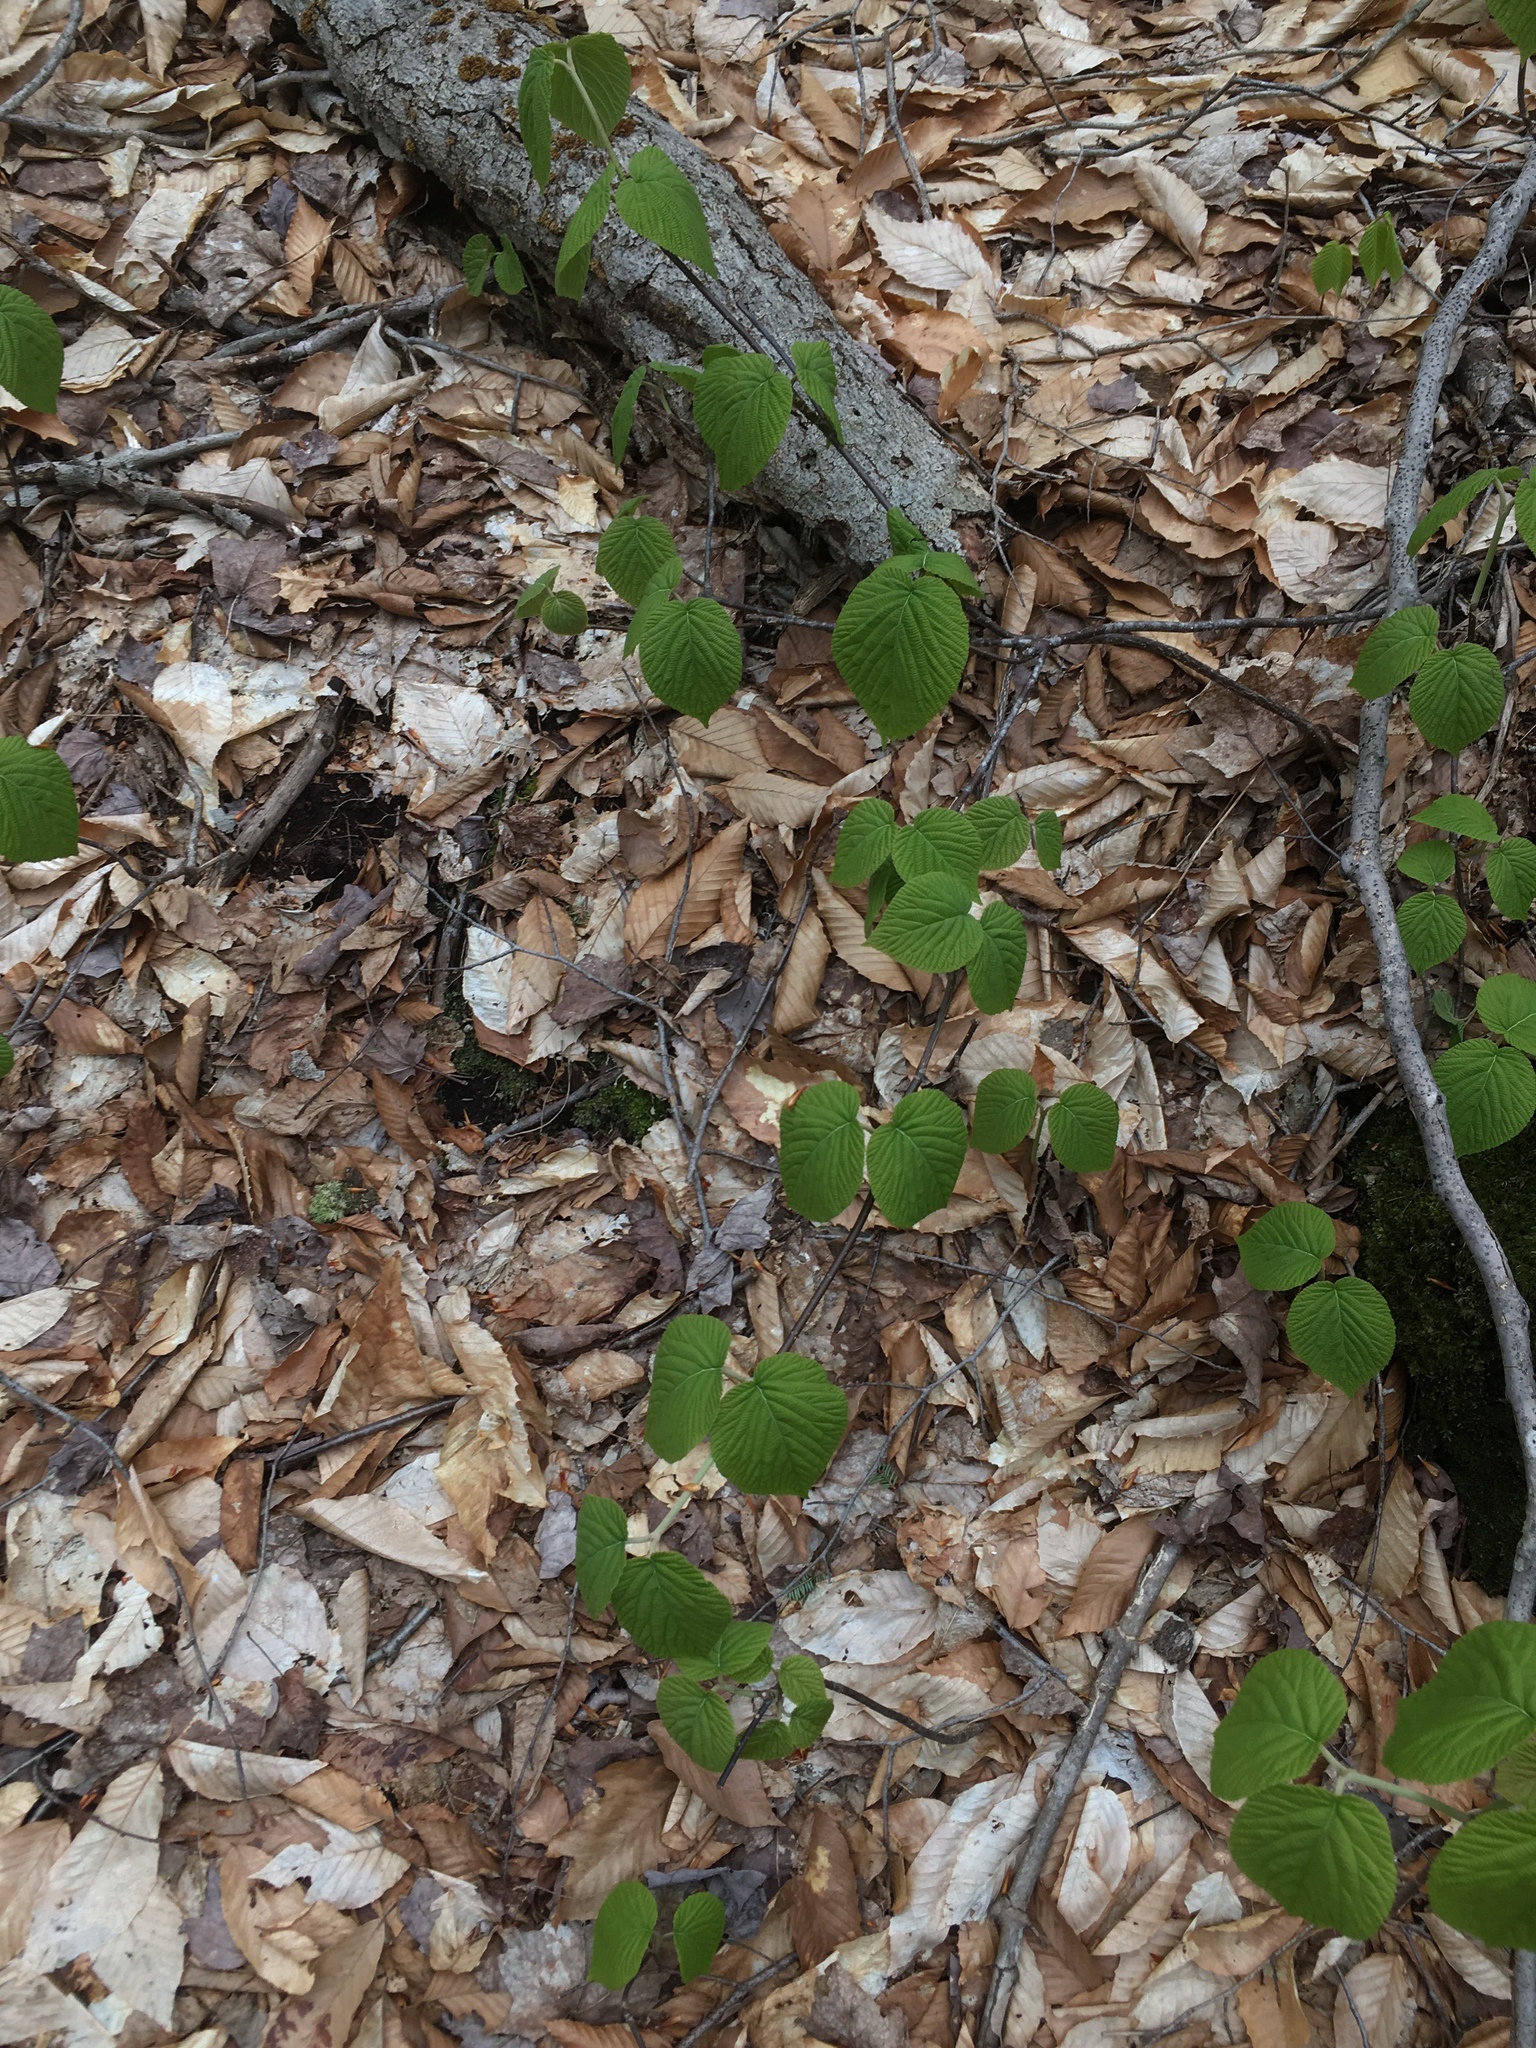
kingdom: Plantae
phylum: Tracheophyta
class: Magnoliopsida
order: Dipsacales
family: Viburnaceae
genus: Viburnum
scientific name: Viburnum lantanoides
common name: Hobblebush
